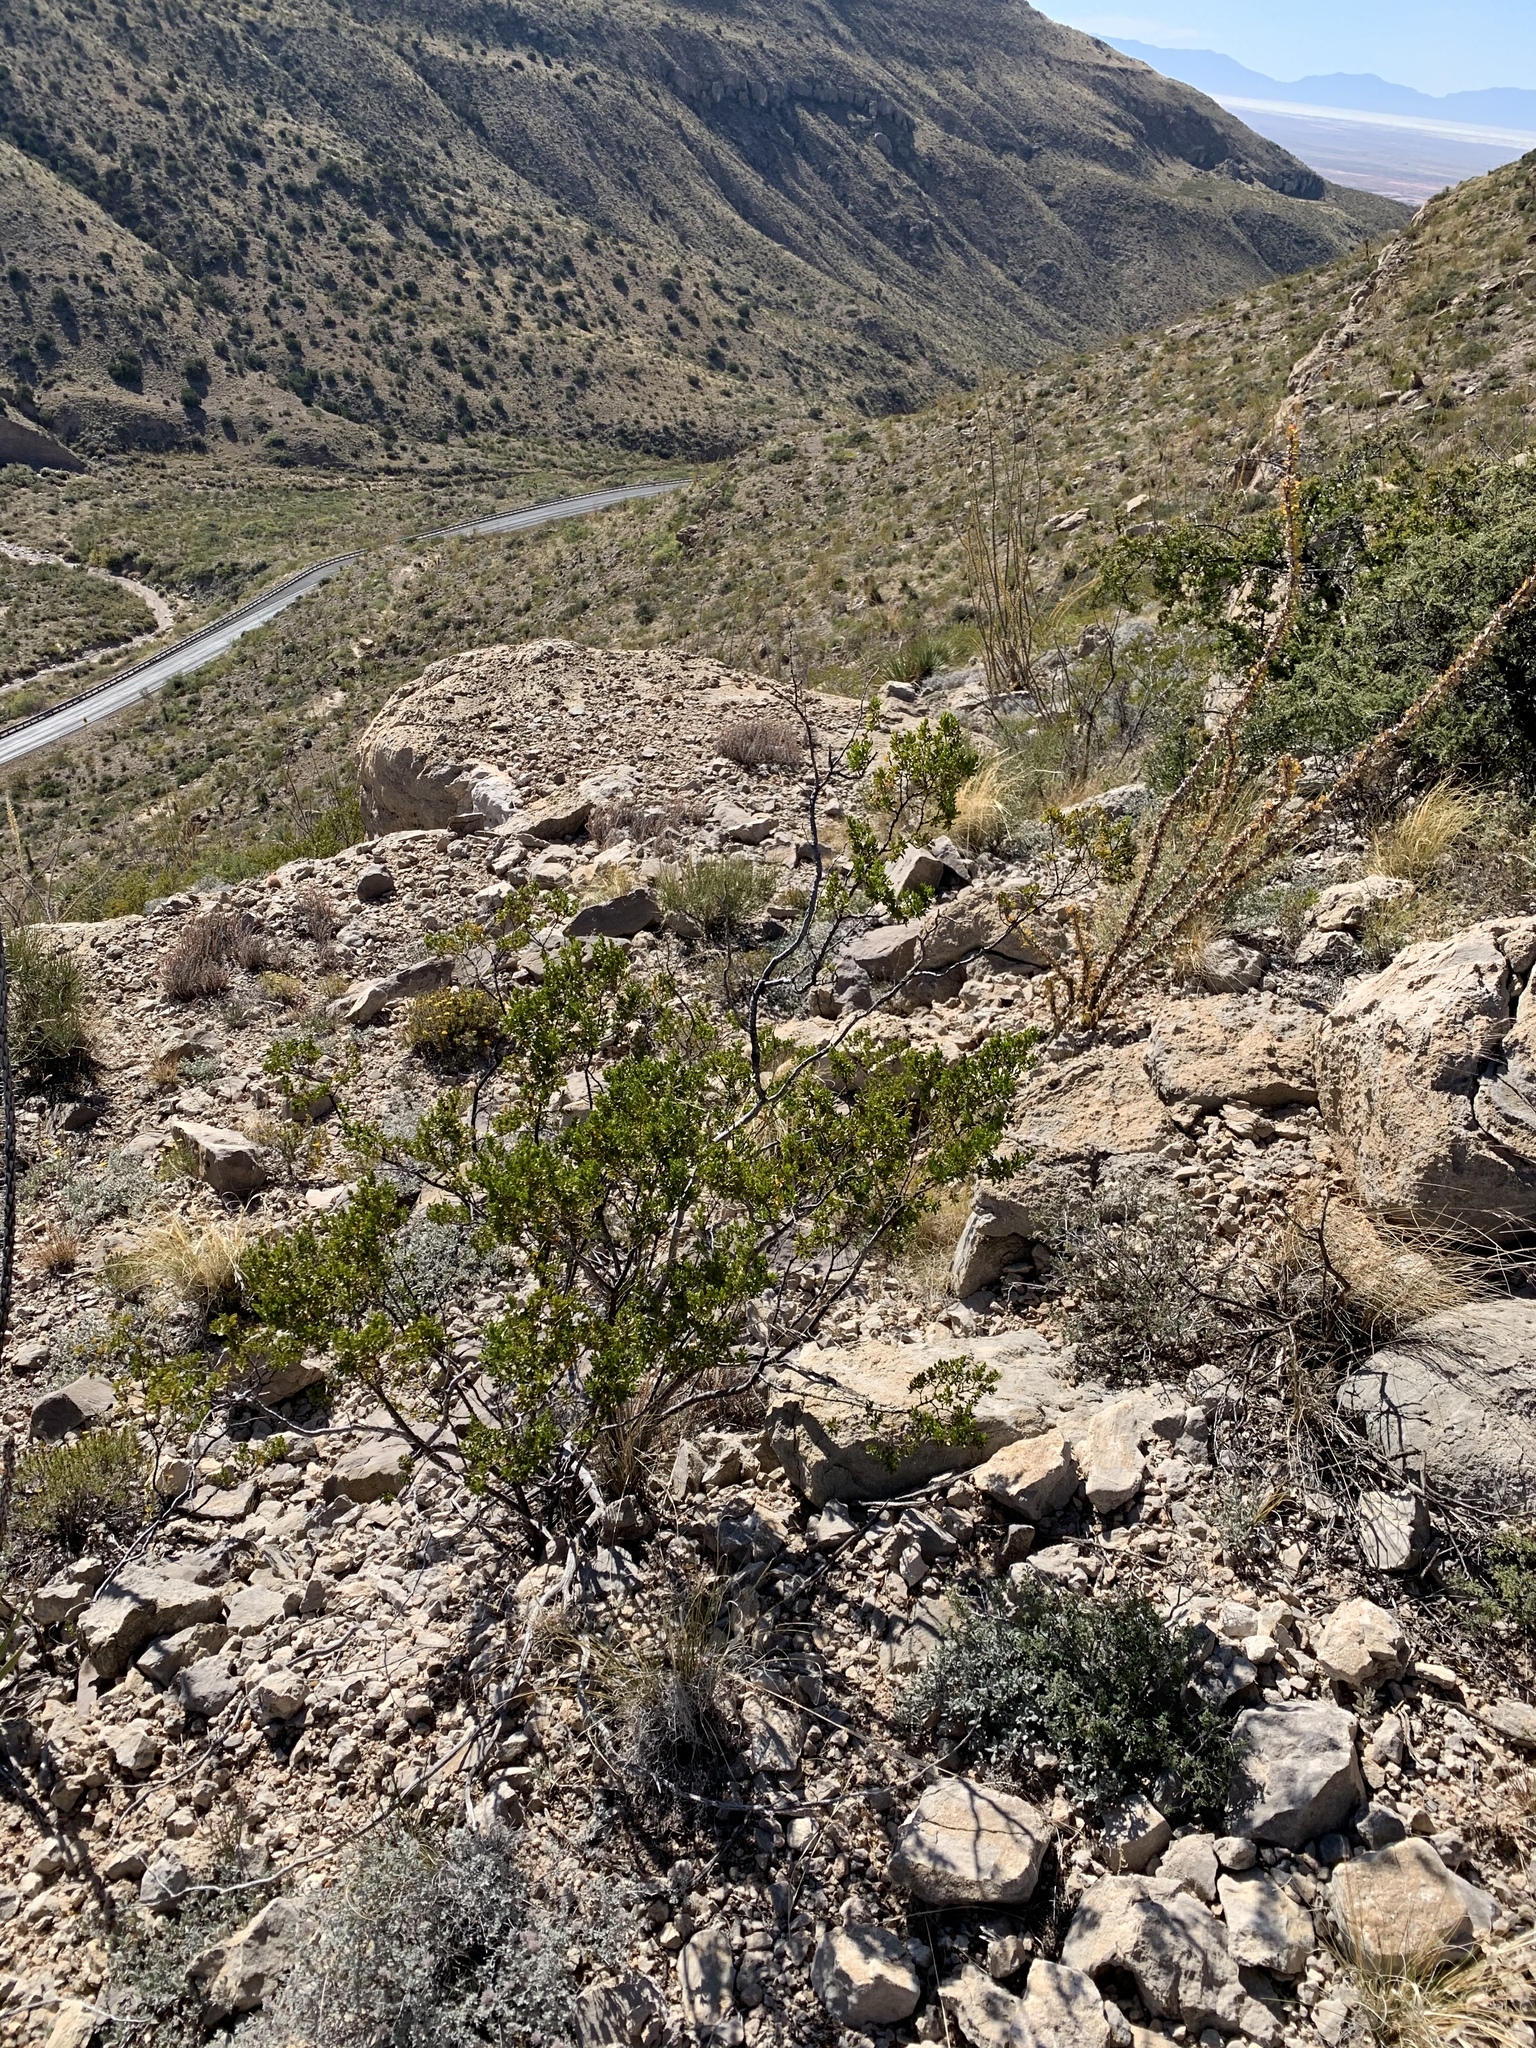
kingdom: Plantae
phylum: Tracheophyta
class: Magnoliopsida
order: Zygophyllales
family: Zygophyllaceae
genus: Larrea
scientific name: Larrea tridentata
